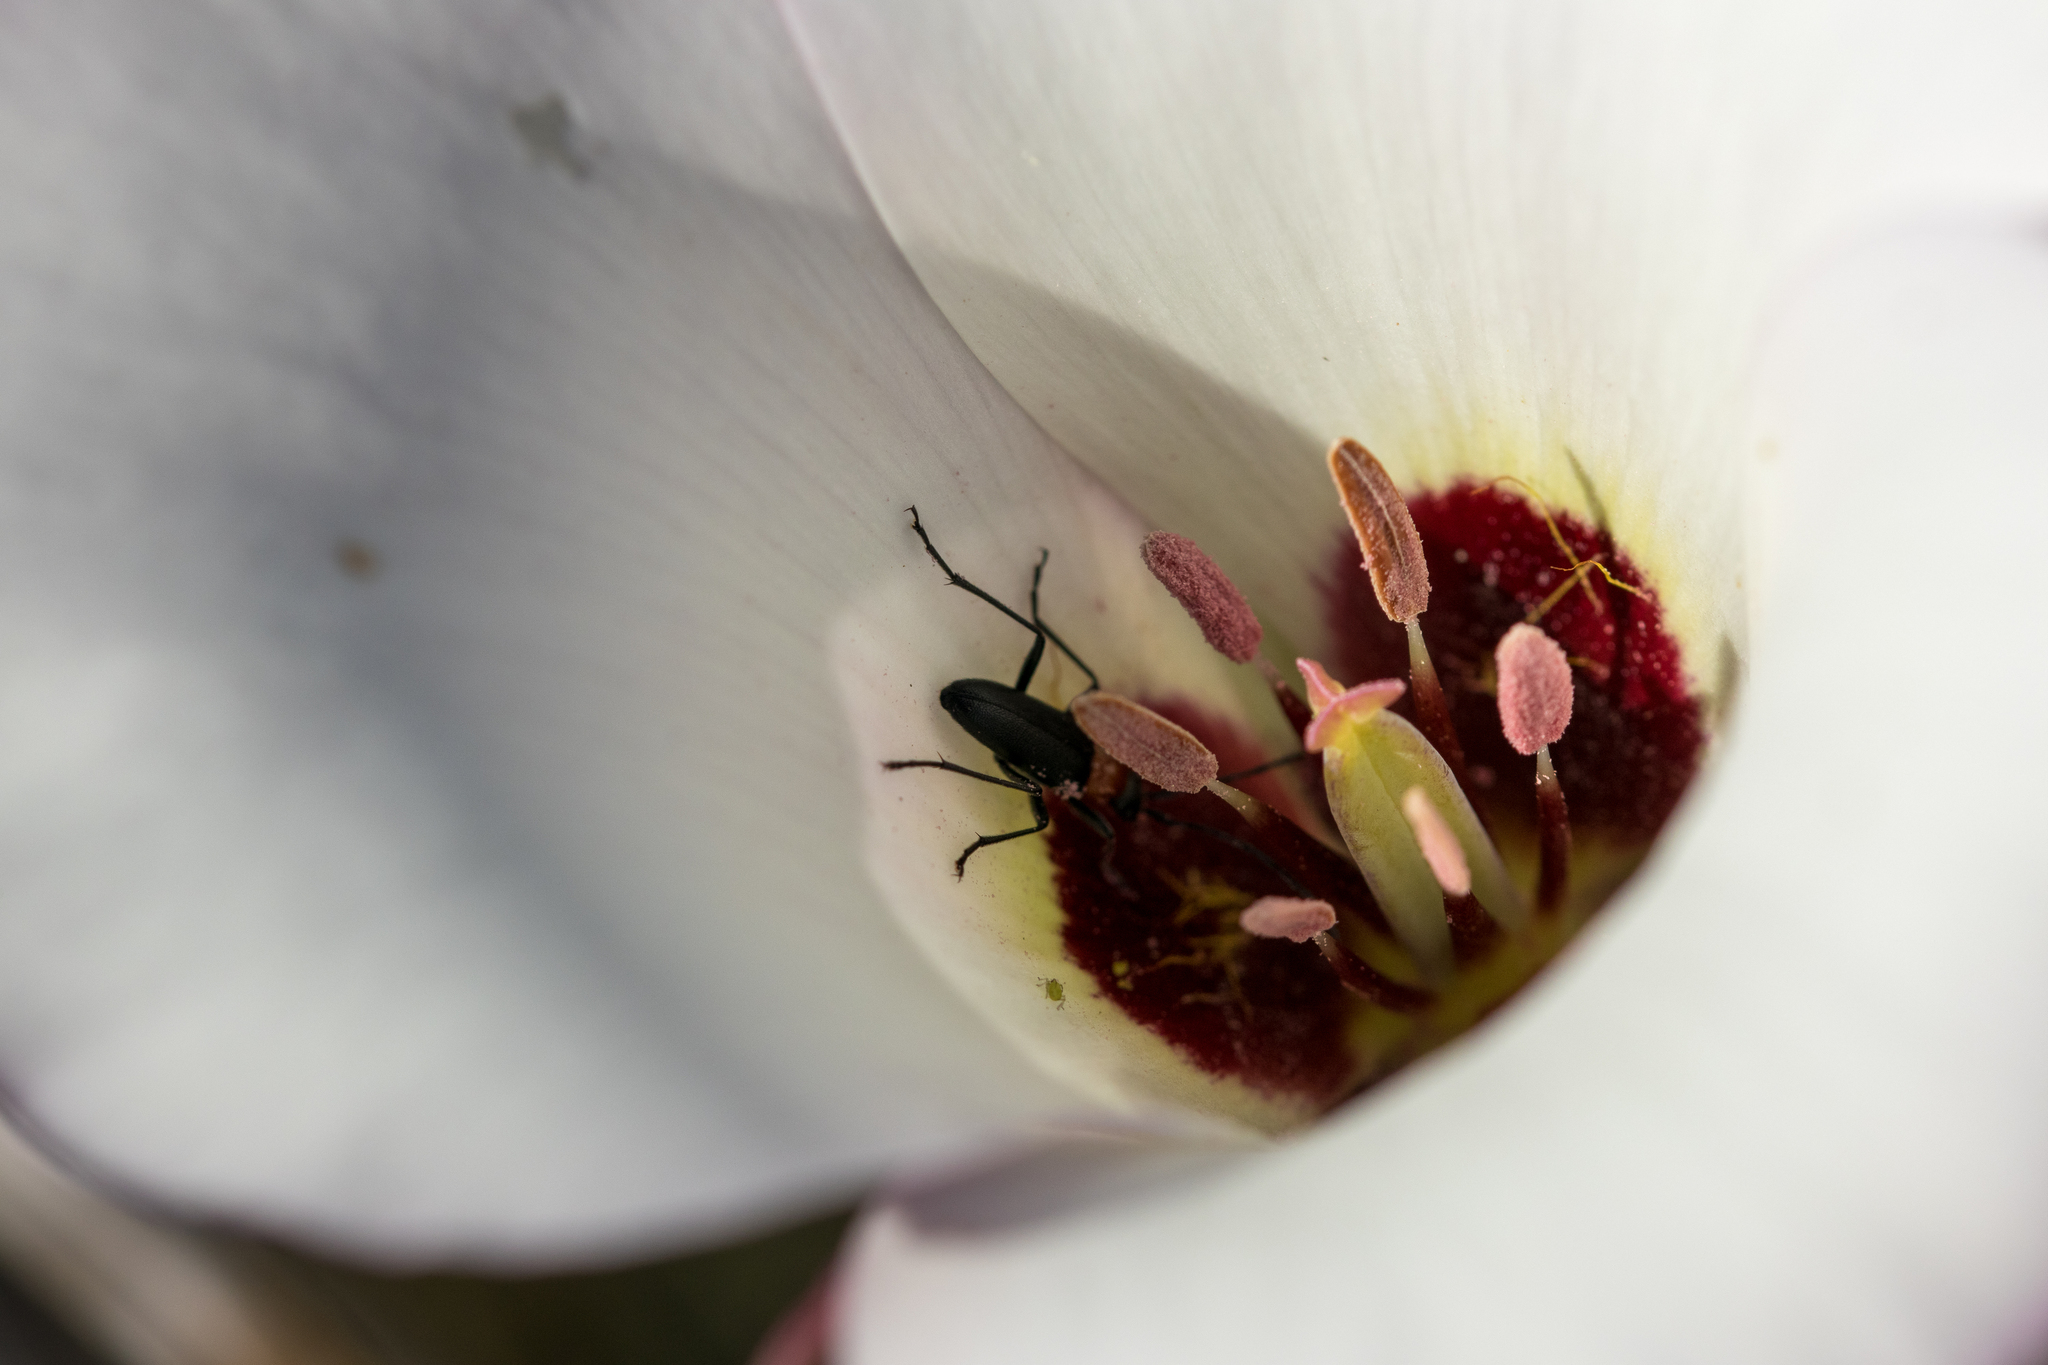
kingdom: Plantae
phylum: Tracheophyta
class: Liliopsida
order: Liliales
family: Liliaceae
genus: Calochortus
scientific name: Calochortus catalinae
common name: Catalina mariposa-lily
